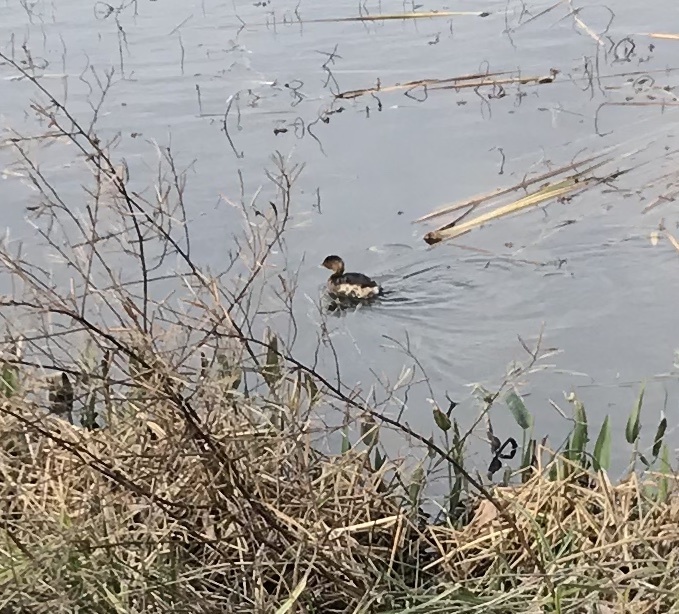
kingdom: Animalia
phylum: Chordata
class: Aves
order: Podicipediformes
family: Podicipedidae
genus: Podilymbus
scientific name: Podilymbus podiceps
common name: Pied-billed grebe
